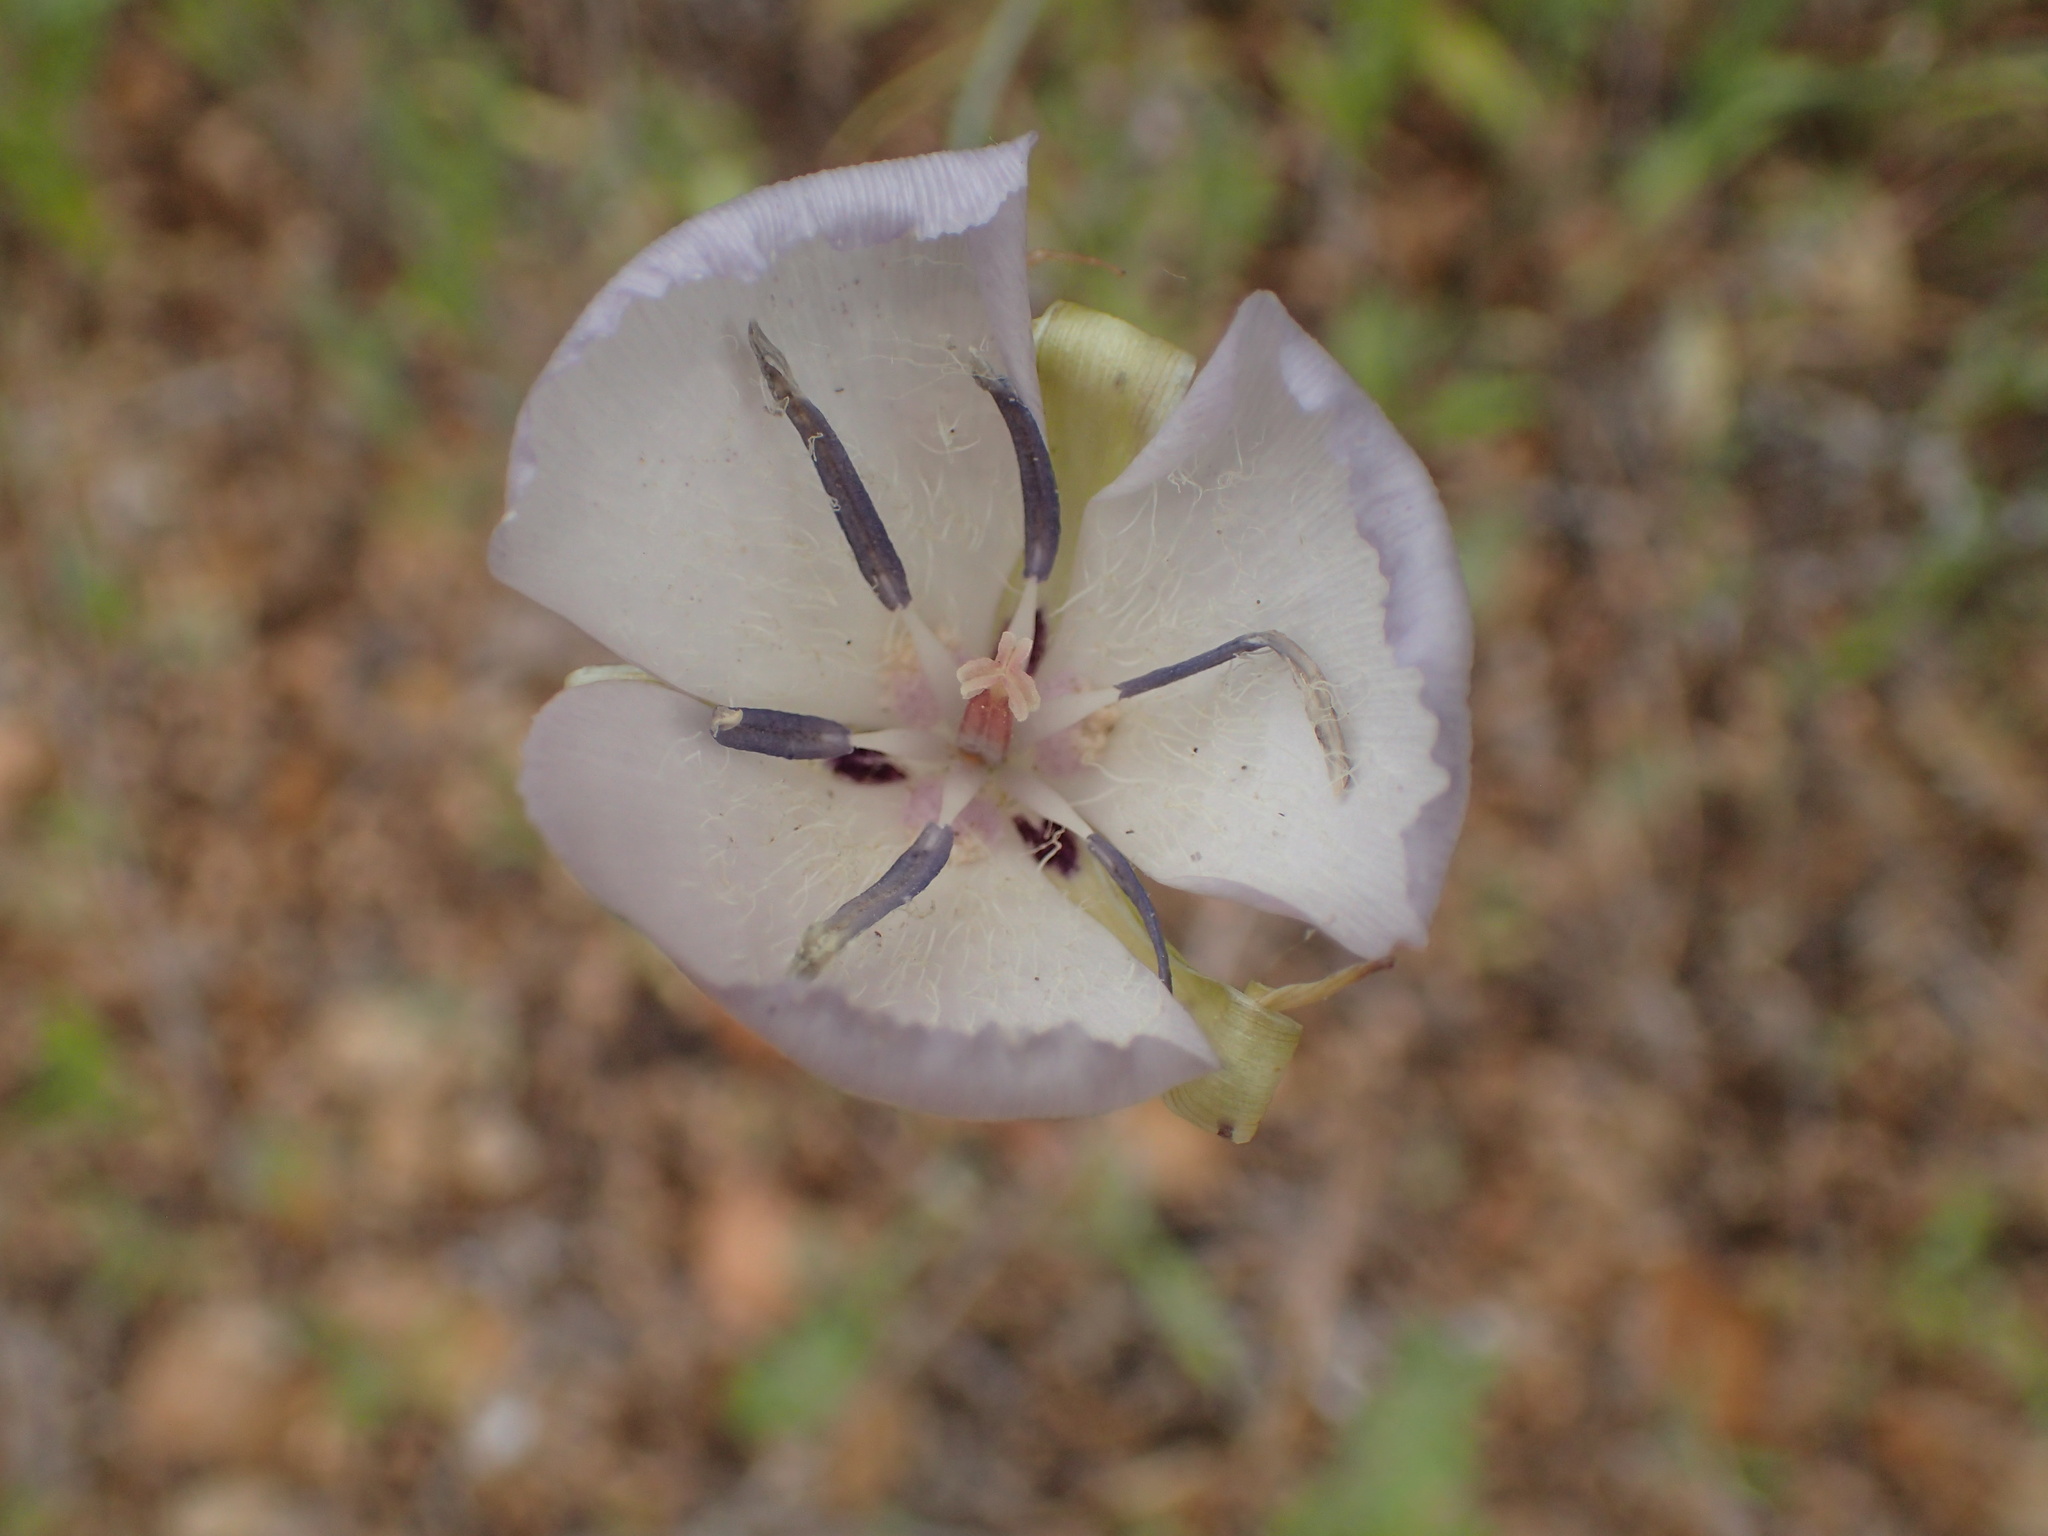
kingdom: Plantae
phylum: Tracheophyta
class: Liliopsida
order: Liliales
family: Liliaceae
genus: Calochortus
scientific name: Calochortus splendens
